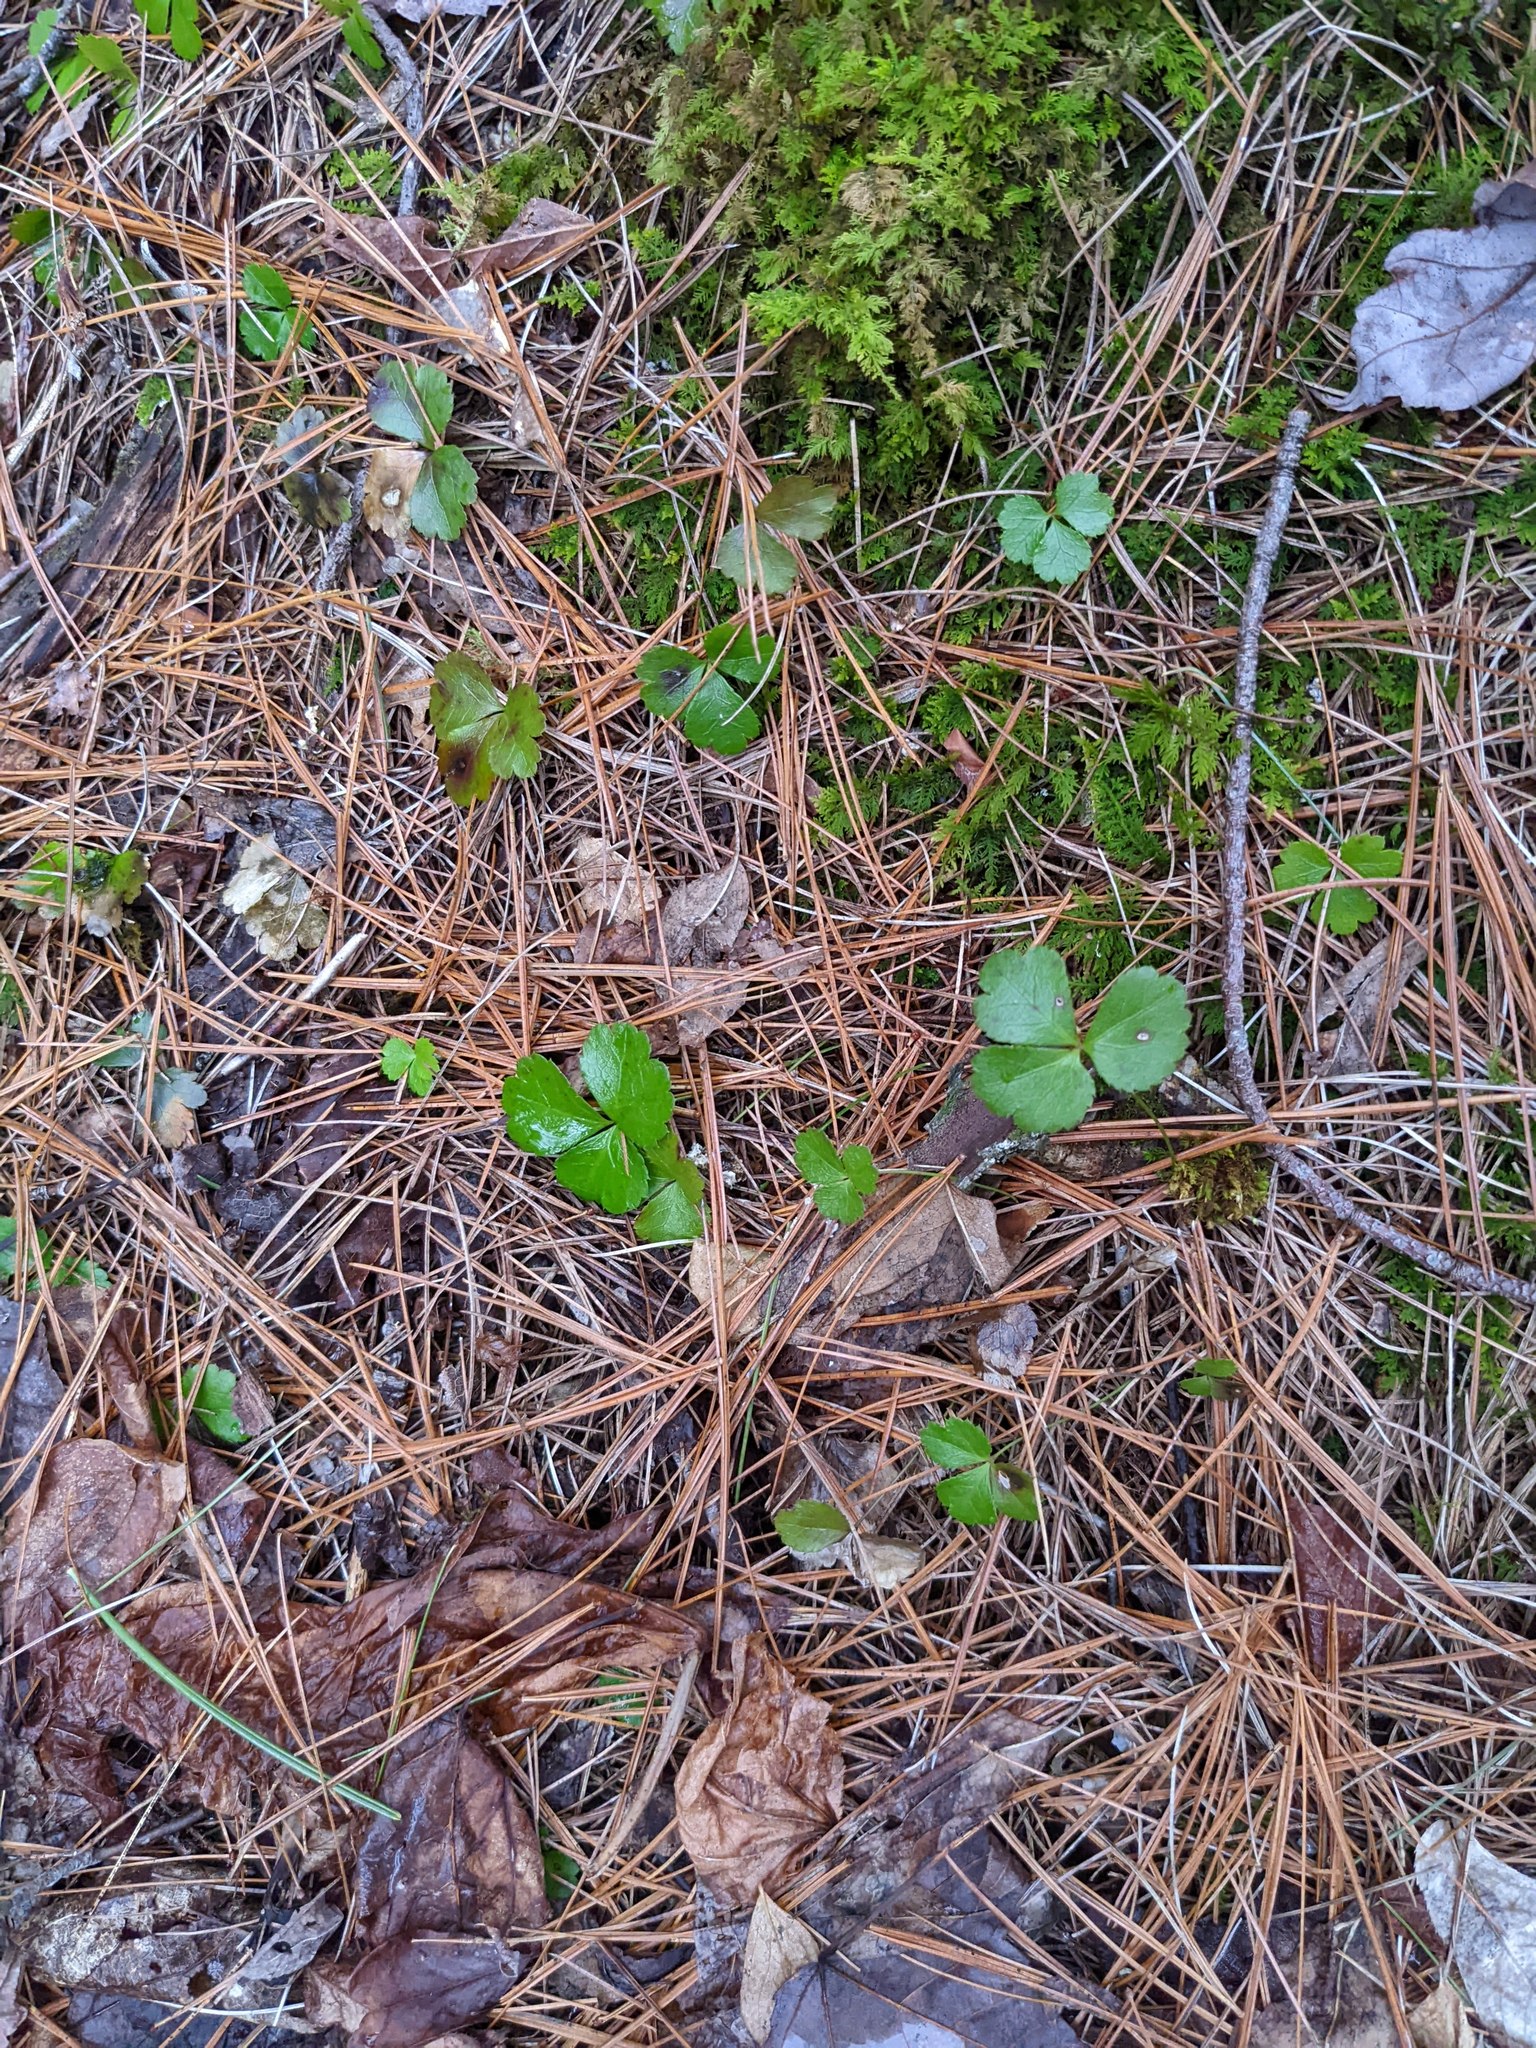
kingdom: Plantae
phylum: Tracheophyta
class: Magnoliopsida
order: Ranunculales
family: Ranunculaceae
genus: Coptis
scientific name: Coptis trifolia
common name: Canker-root
